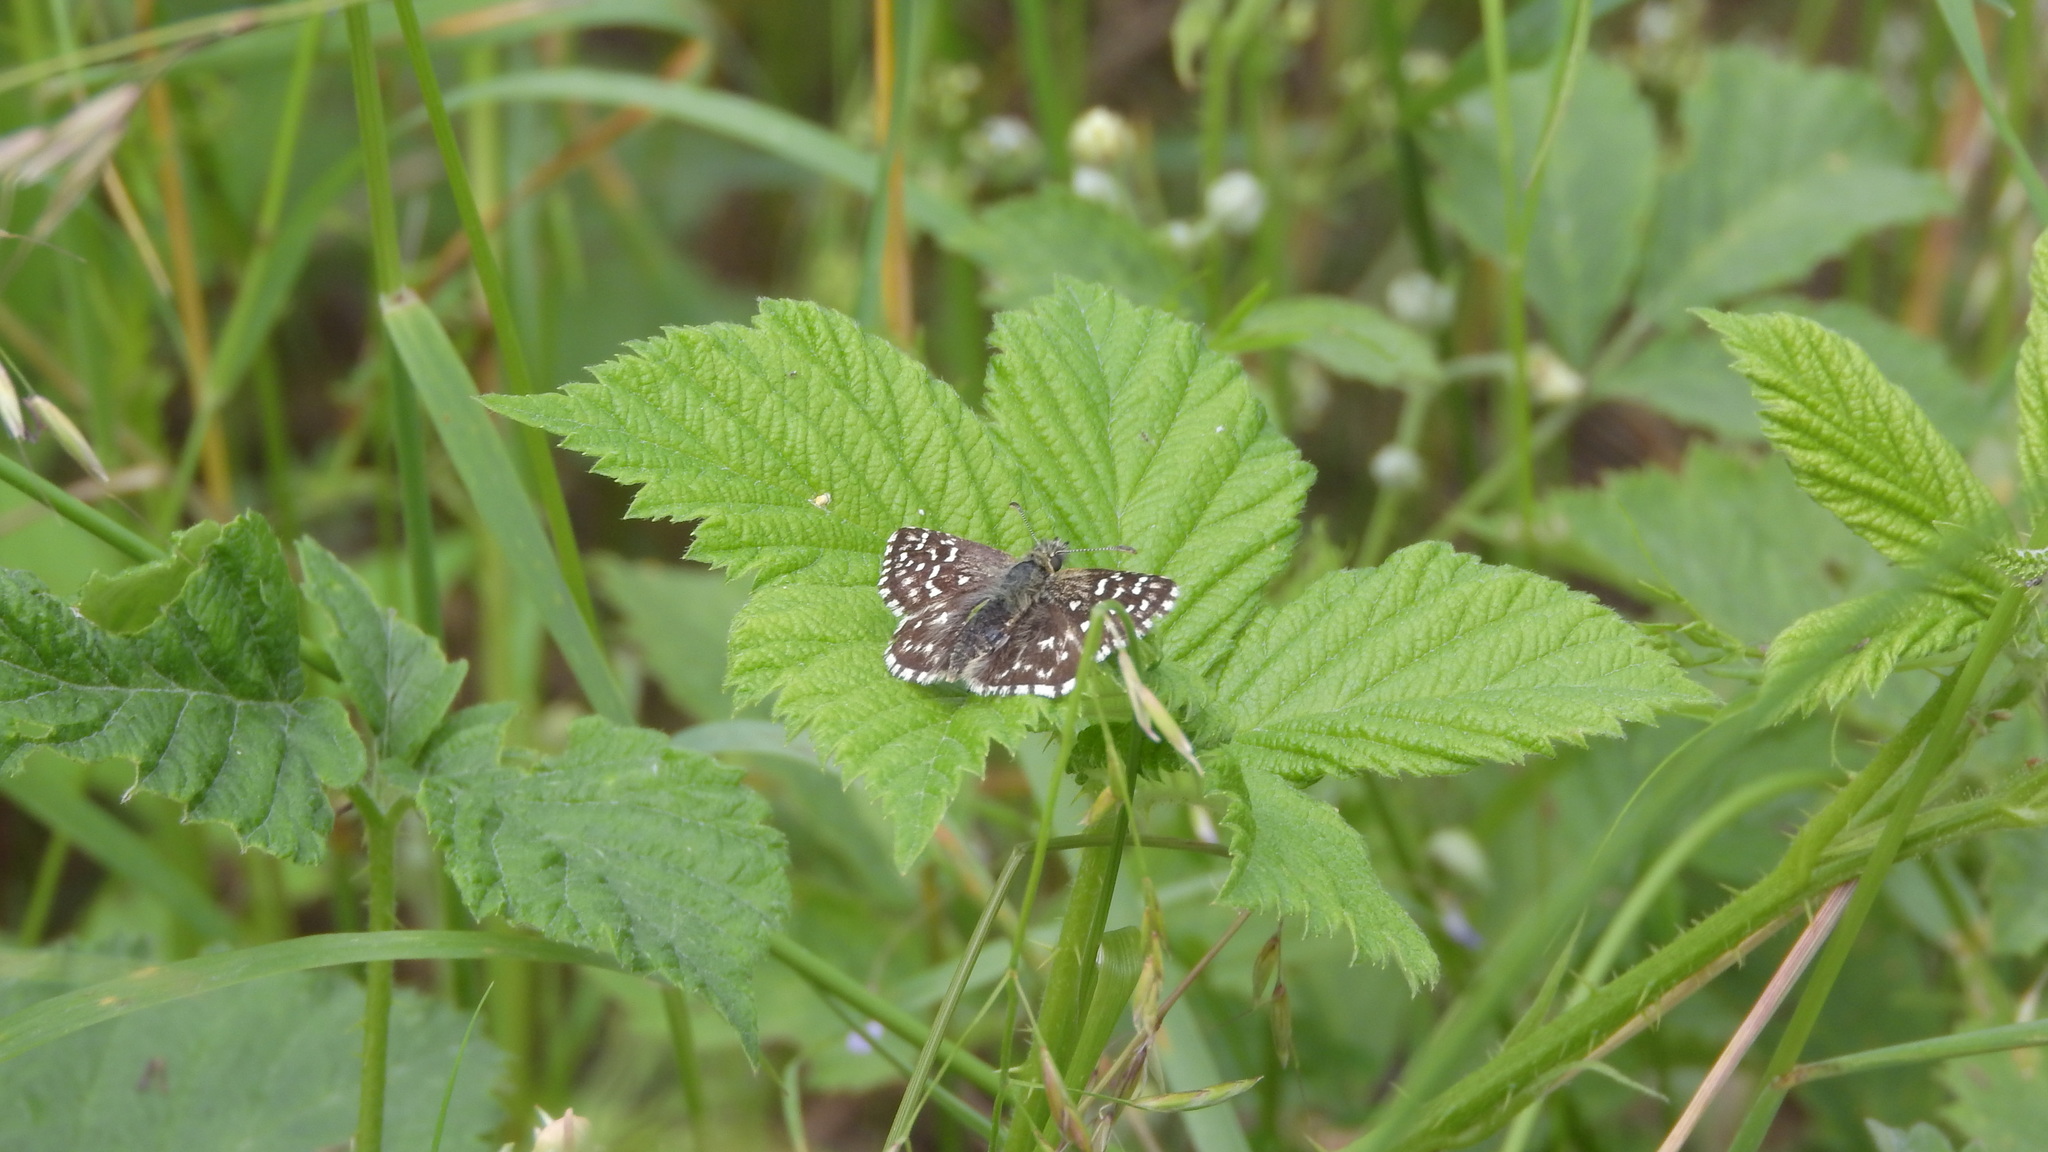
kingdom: Animalia
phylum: Arthropoda
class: Insecta
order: Lepidoptera
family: Hesperiidae
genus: Pyrgus
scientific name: Pyrgus malvae
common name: Grizzled skipper
